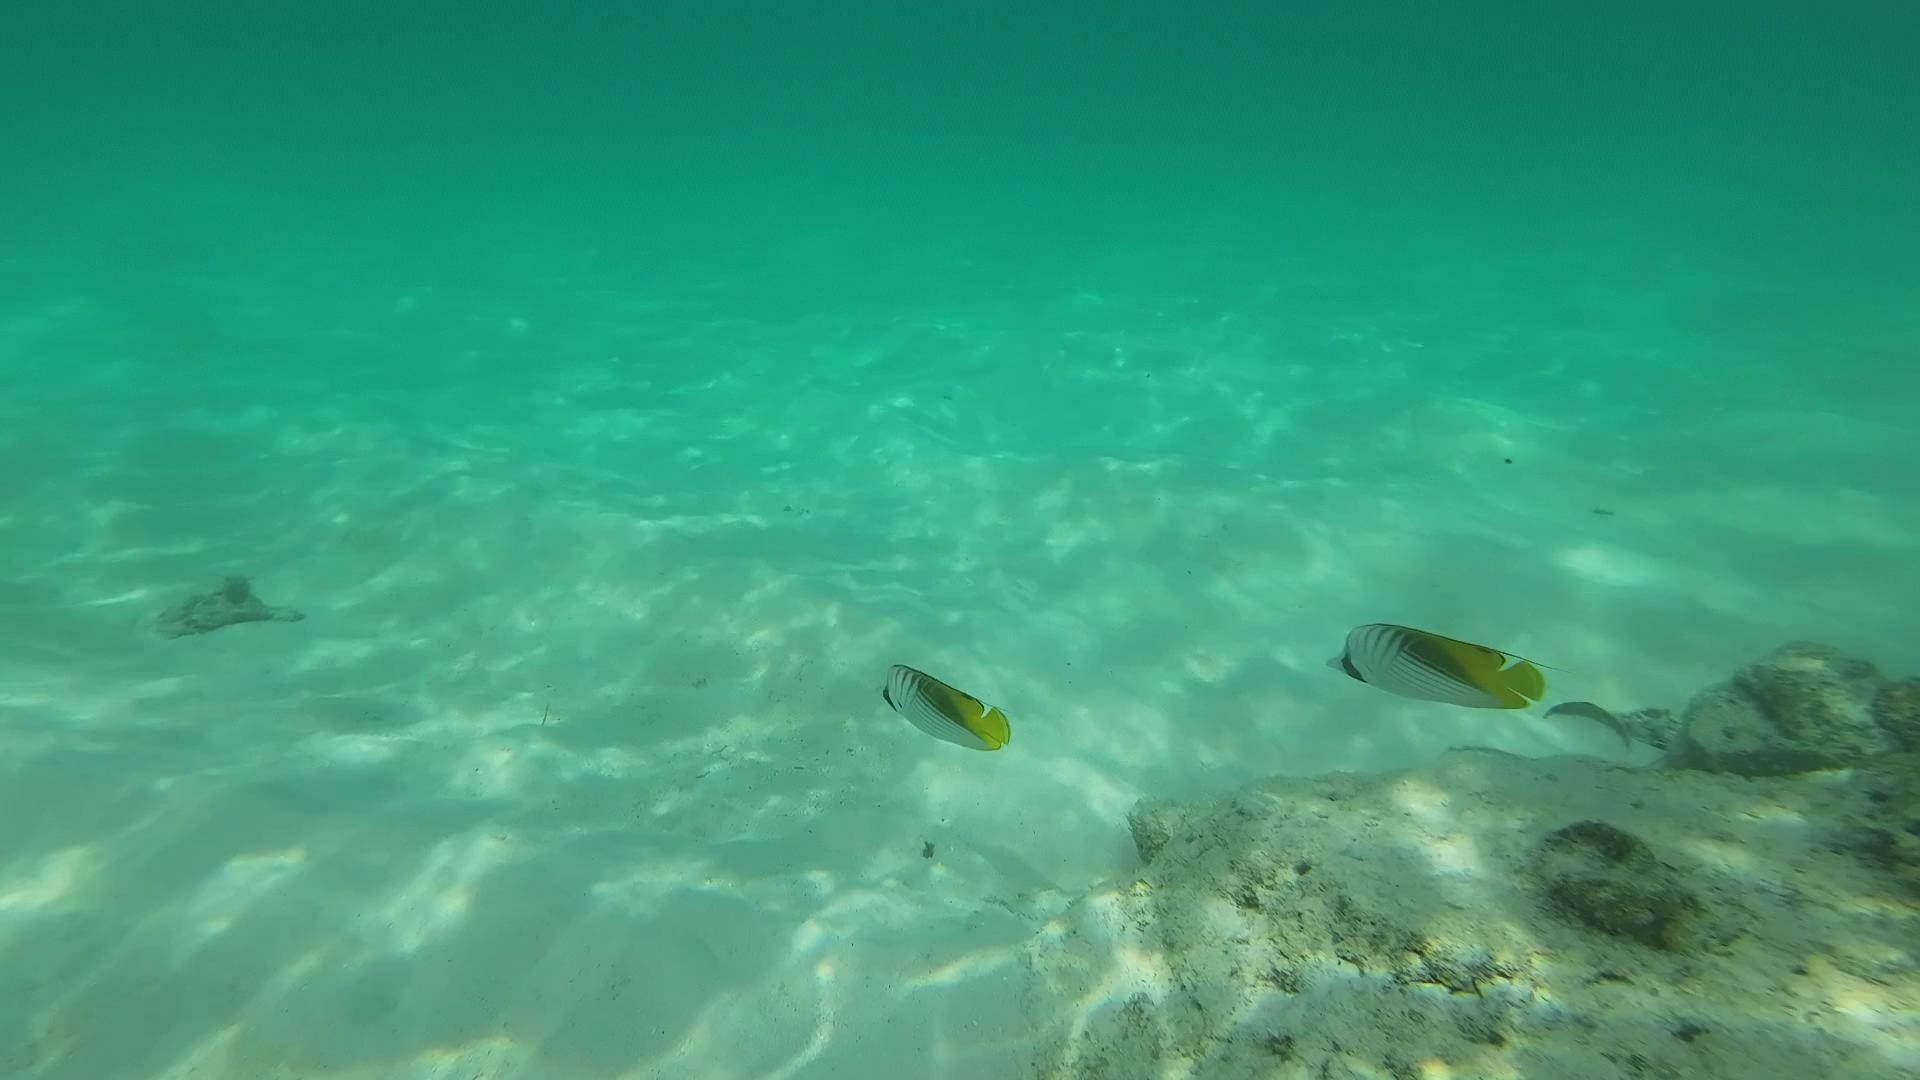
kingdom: Animalia
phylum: Chordata
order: Perciformes
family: Chaetodontidae
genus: Chaetodon
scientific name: Chaetodon auriga
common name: Threadfin butterflyfish
